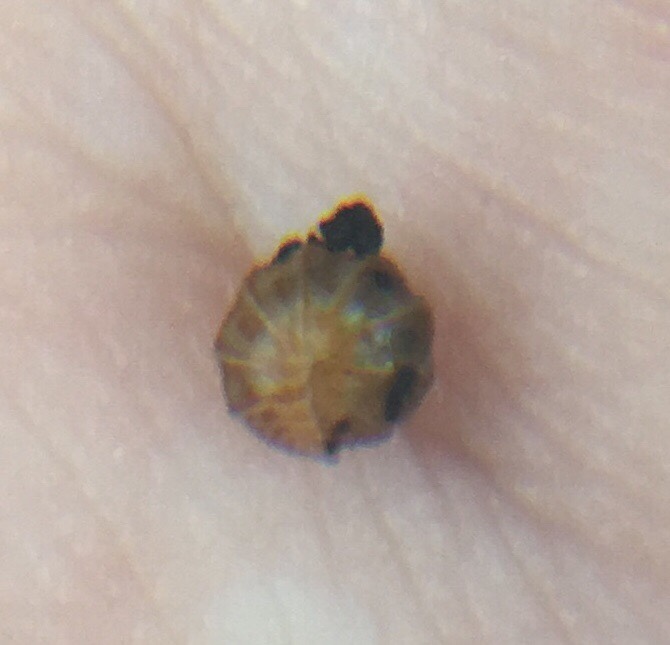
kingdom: Animalia
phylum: Arthropoda
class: Malacostraca
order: Isopoda
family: Armadillidae
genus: Venezillo
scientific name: Venezillo parvus
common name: Pillbug
